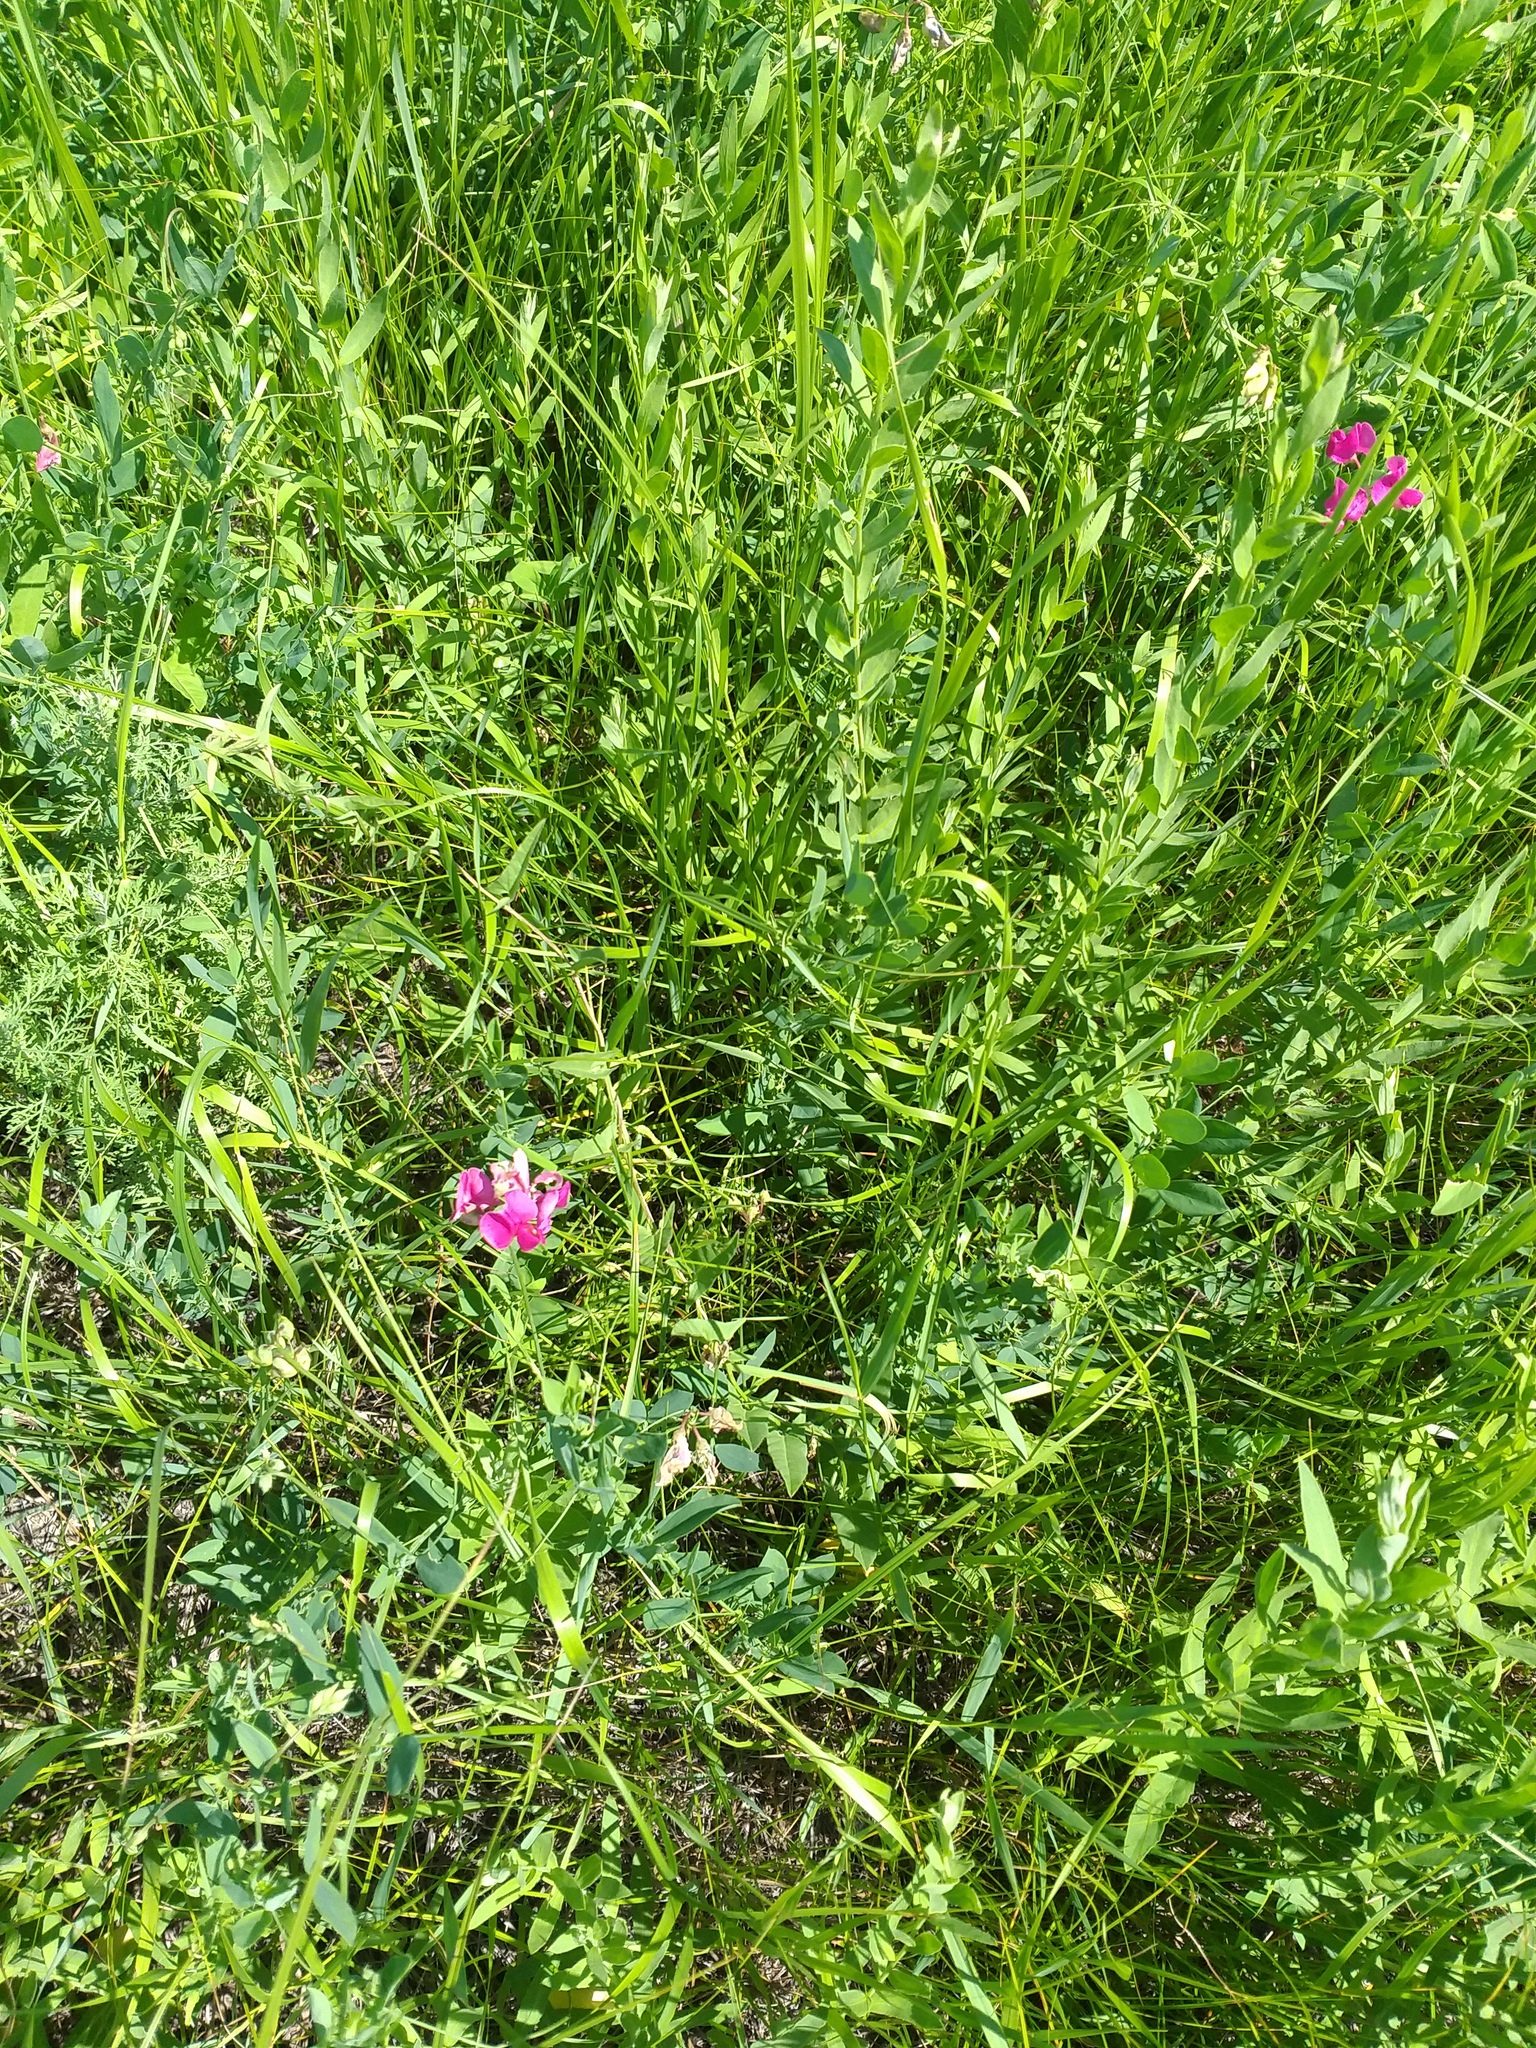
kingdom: Plantae
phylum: Tracheophyta
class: Magnoliopsida
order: Fabales
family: Fabaceae
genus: Lathyrus
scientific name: Lathyrus tuberosus
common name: Tuberous pea
